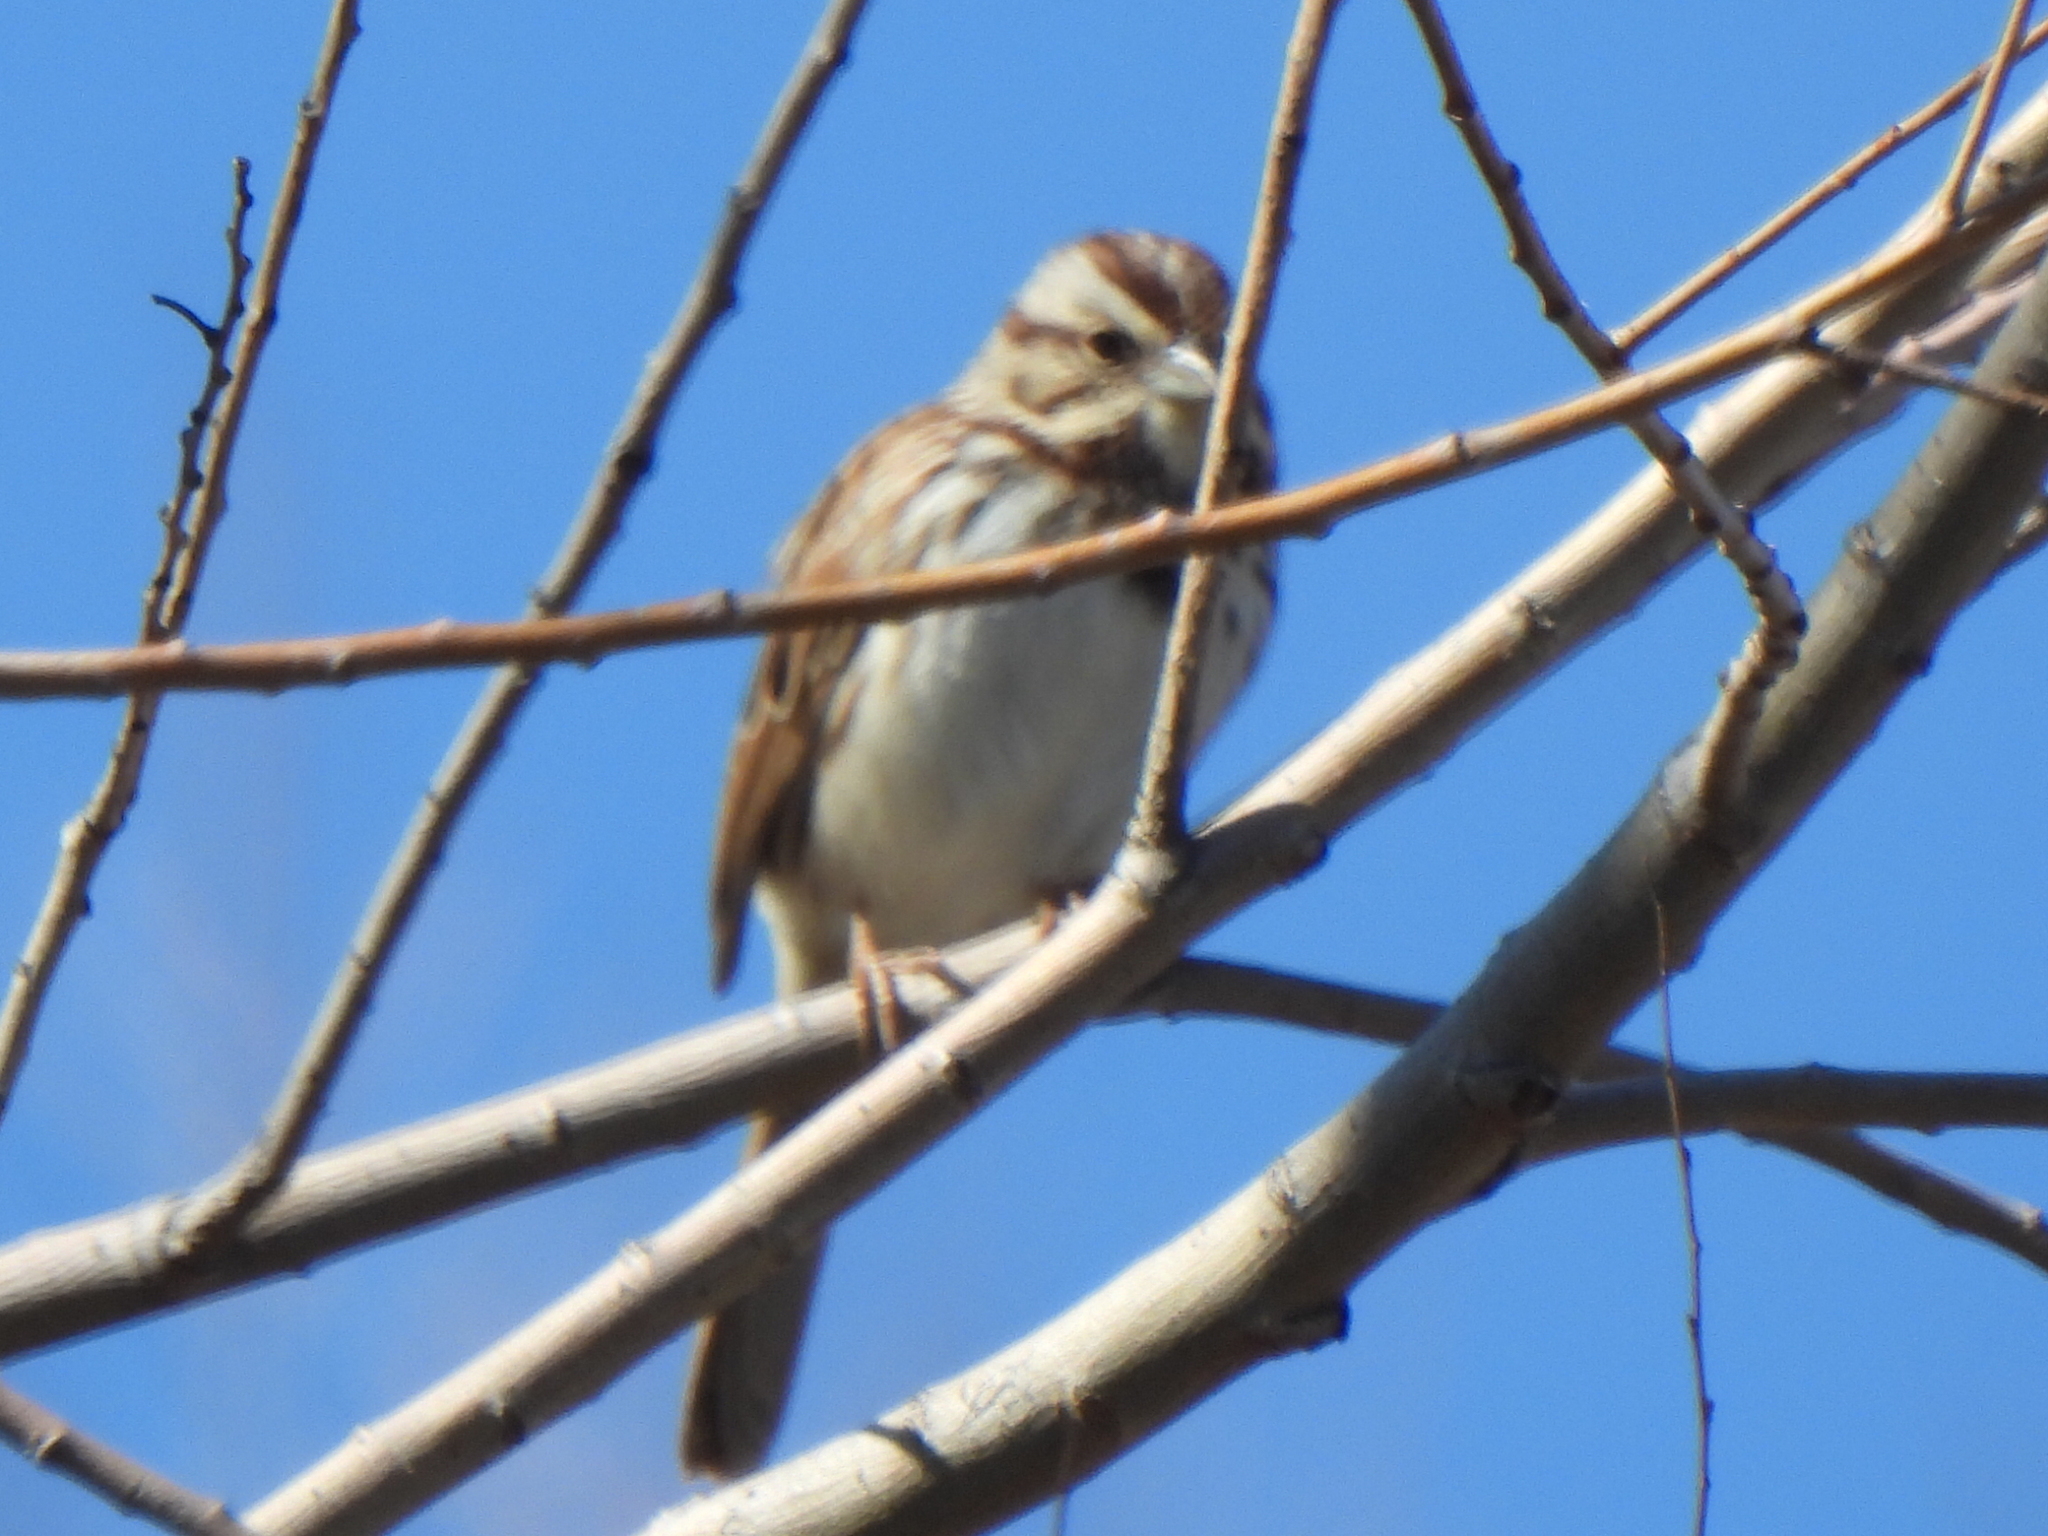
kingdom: Animalia
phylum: Chordata
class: Aves
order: Passeriformes
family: Passerellidae
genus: Melospiza
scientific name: Melospiza melodia
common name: Song sparrow
